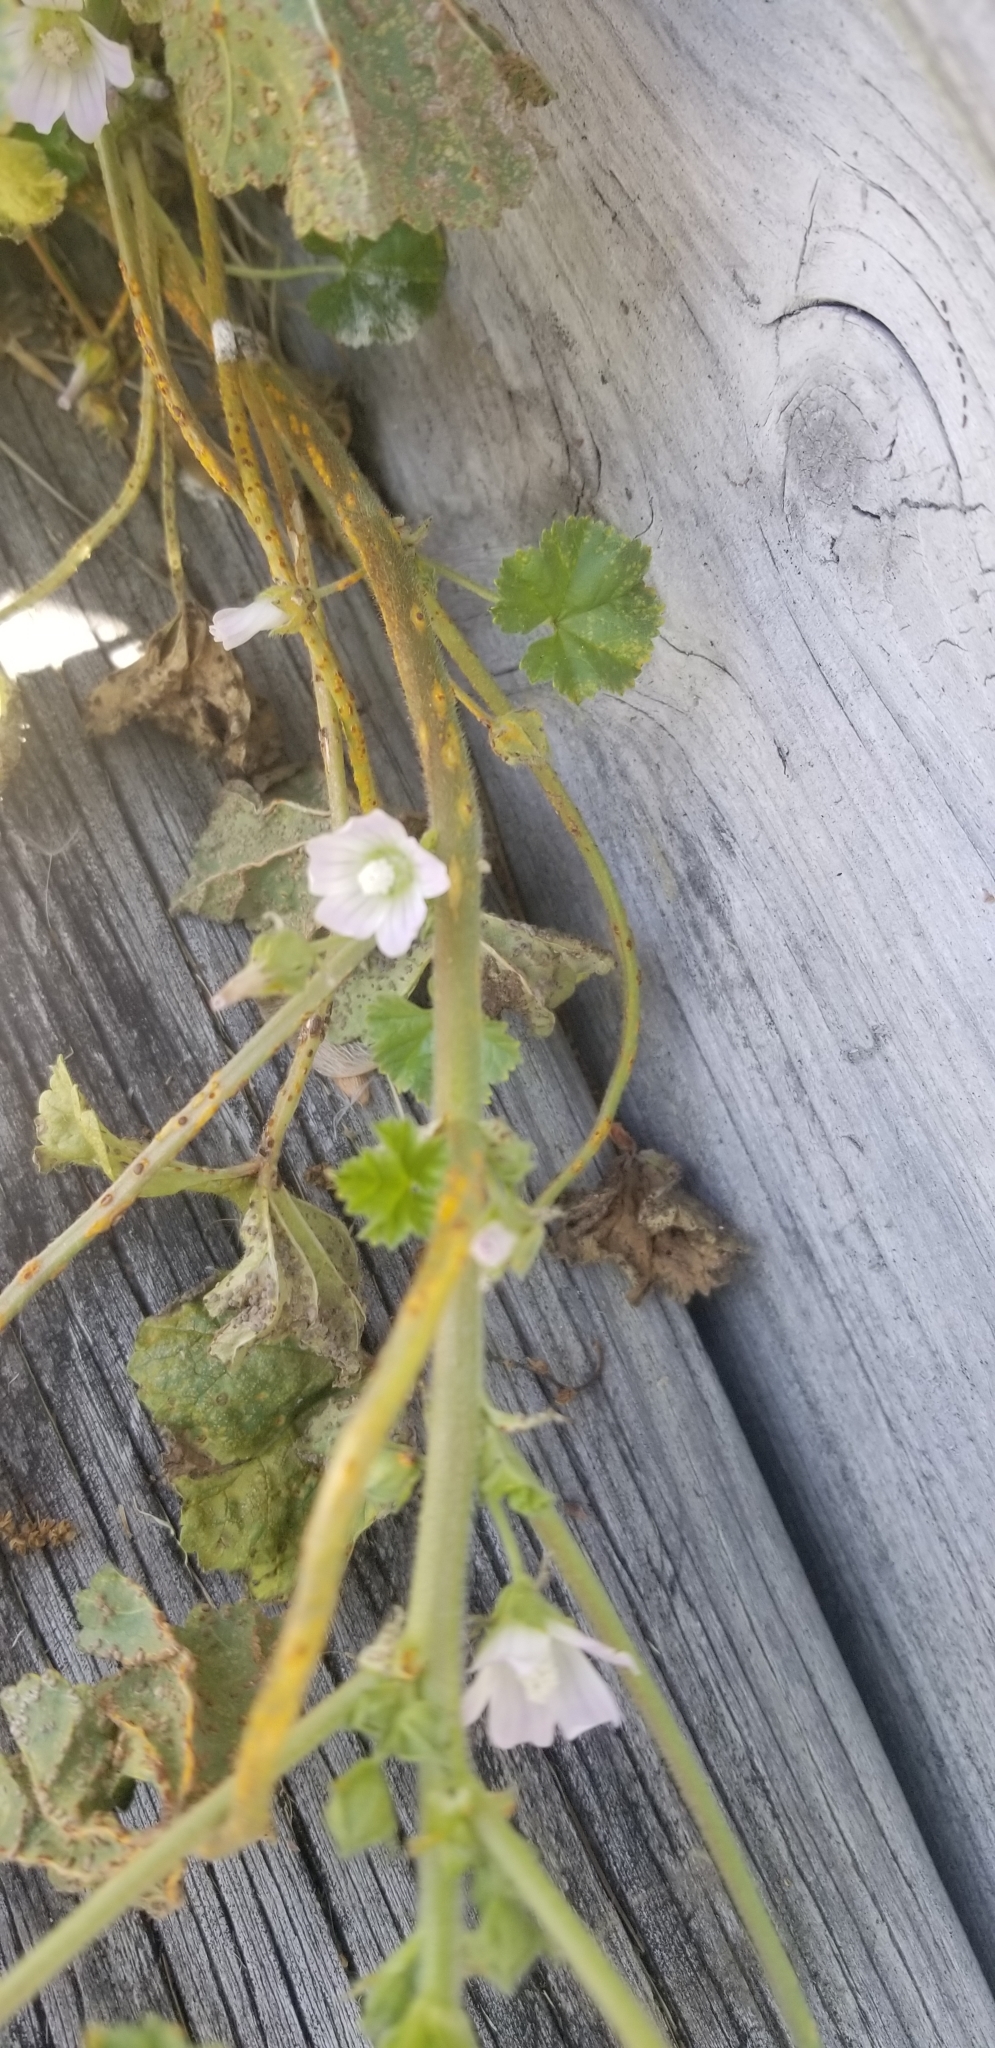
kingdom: Plantae
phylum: Tracheophyta
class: Magnoliopsida
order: Malvales
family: Malvaceae
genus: Malva
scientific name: Malva neglecta
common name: Common mallow
